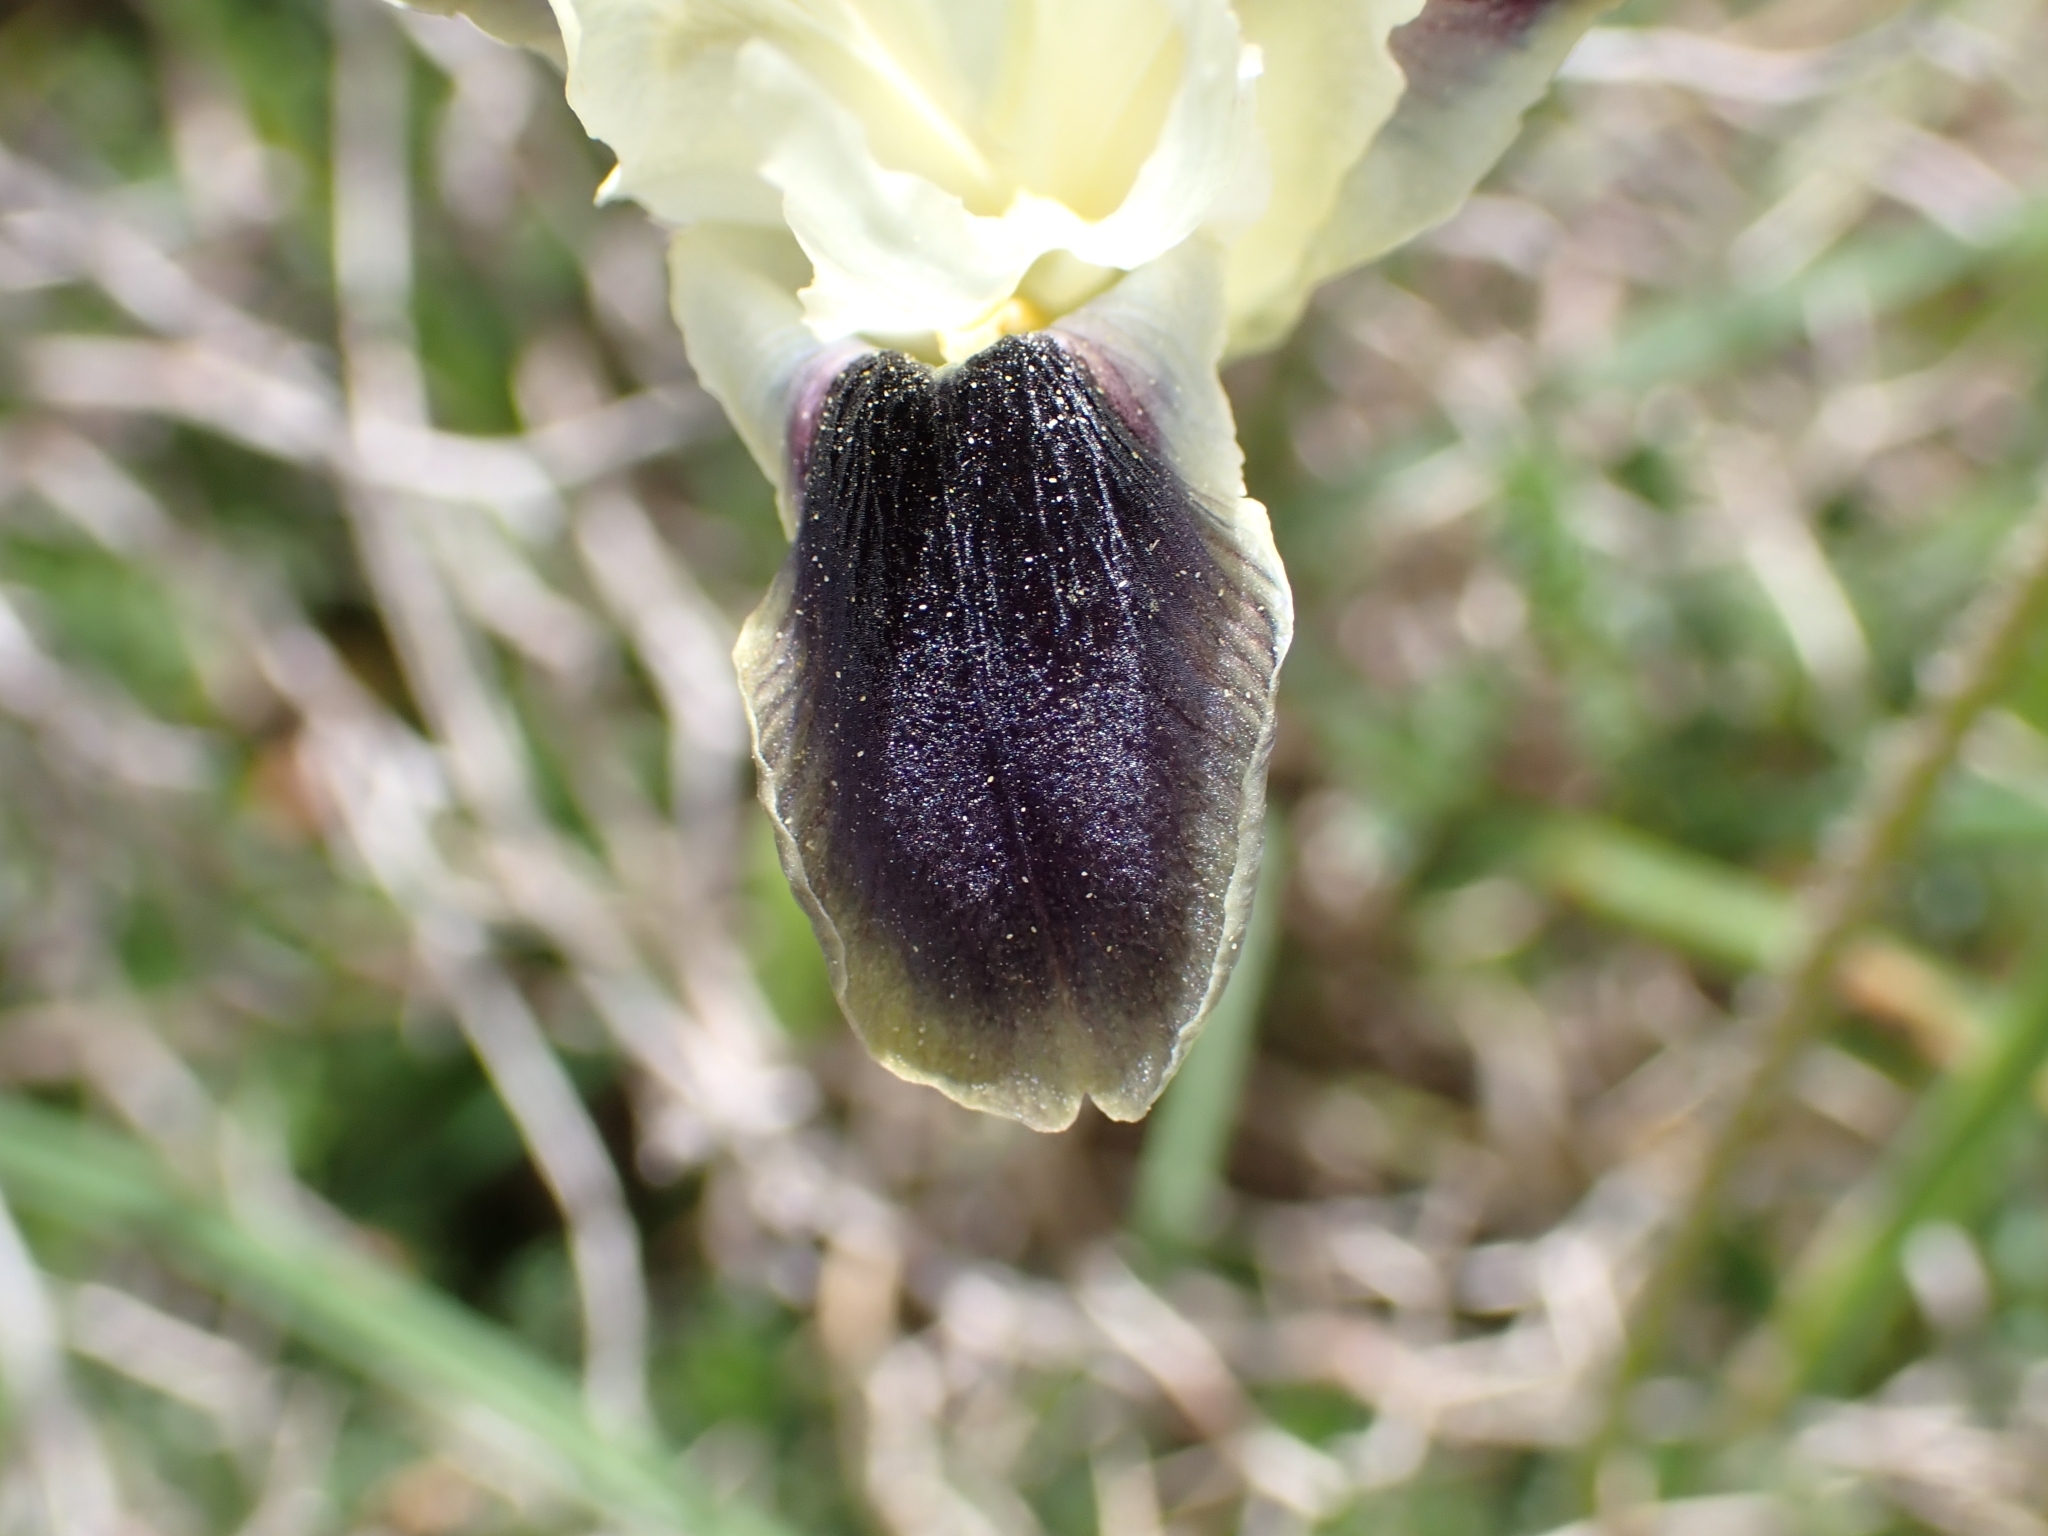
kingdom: Plantae
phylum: Tracheophyta
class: Liliopsida
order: Asparagales
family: Iridaceae
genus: Iris
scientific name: Iris tuberosa
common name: Snake's-head iris
